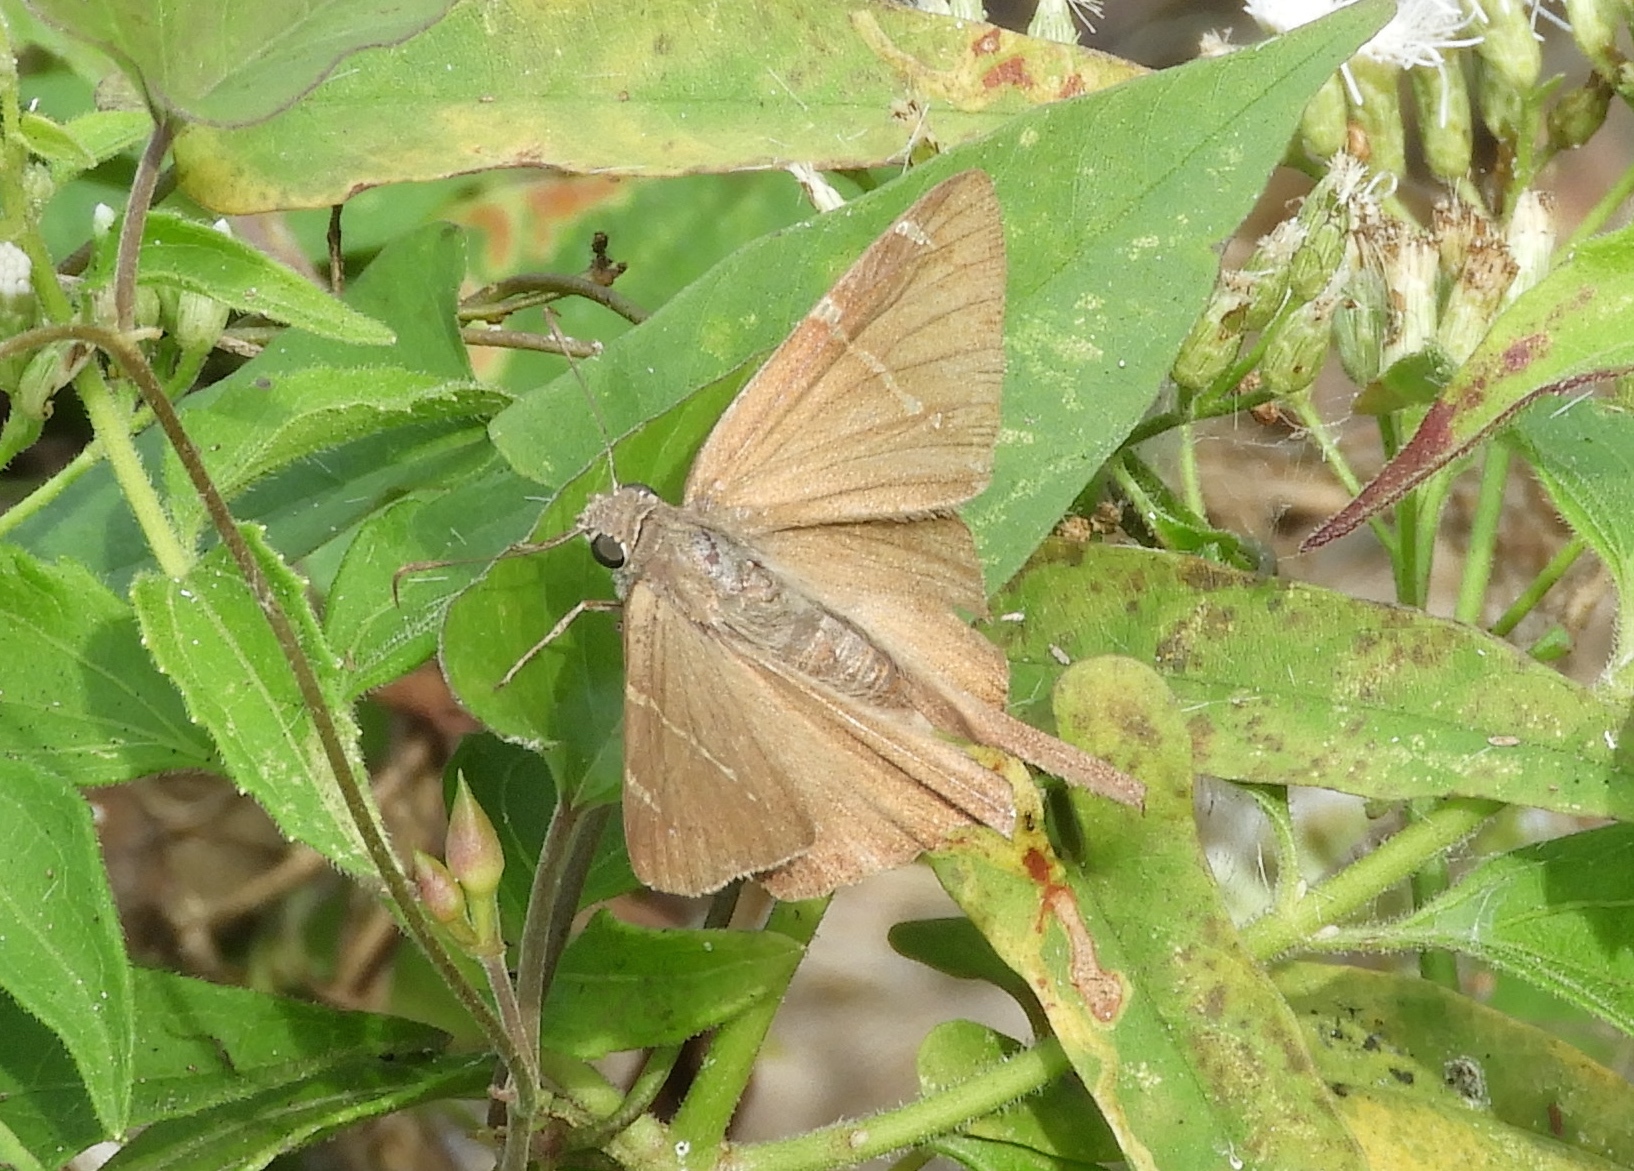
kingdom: Animalia
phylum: Arthropoda
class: Insecta
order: Lepidoptera
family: Hesperiidae
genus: Urbanus
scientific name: Urbanus procne
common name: Brown longtail
